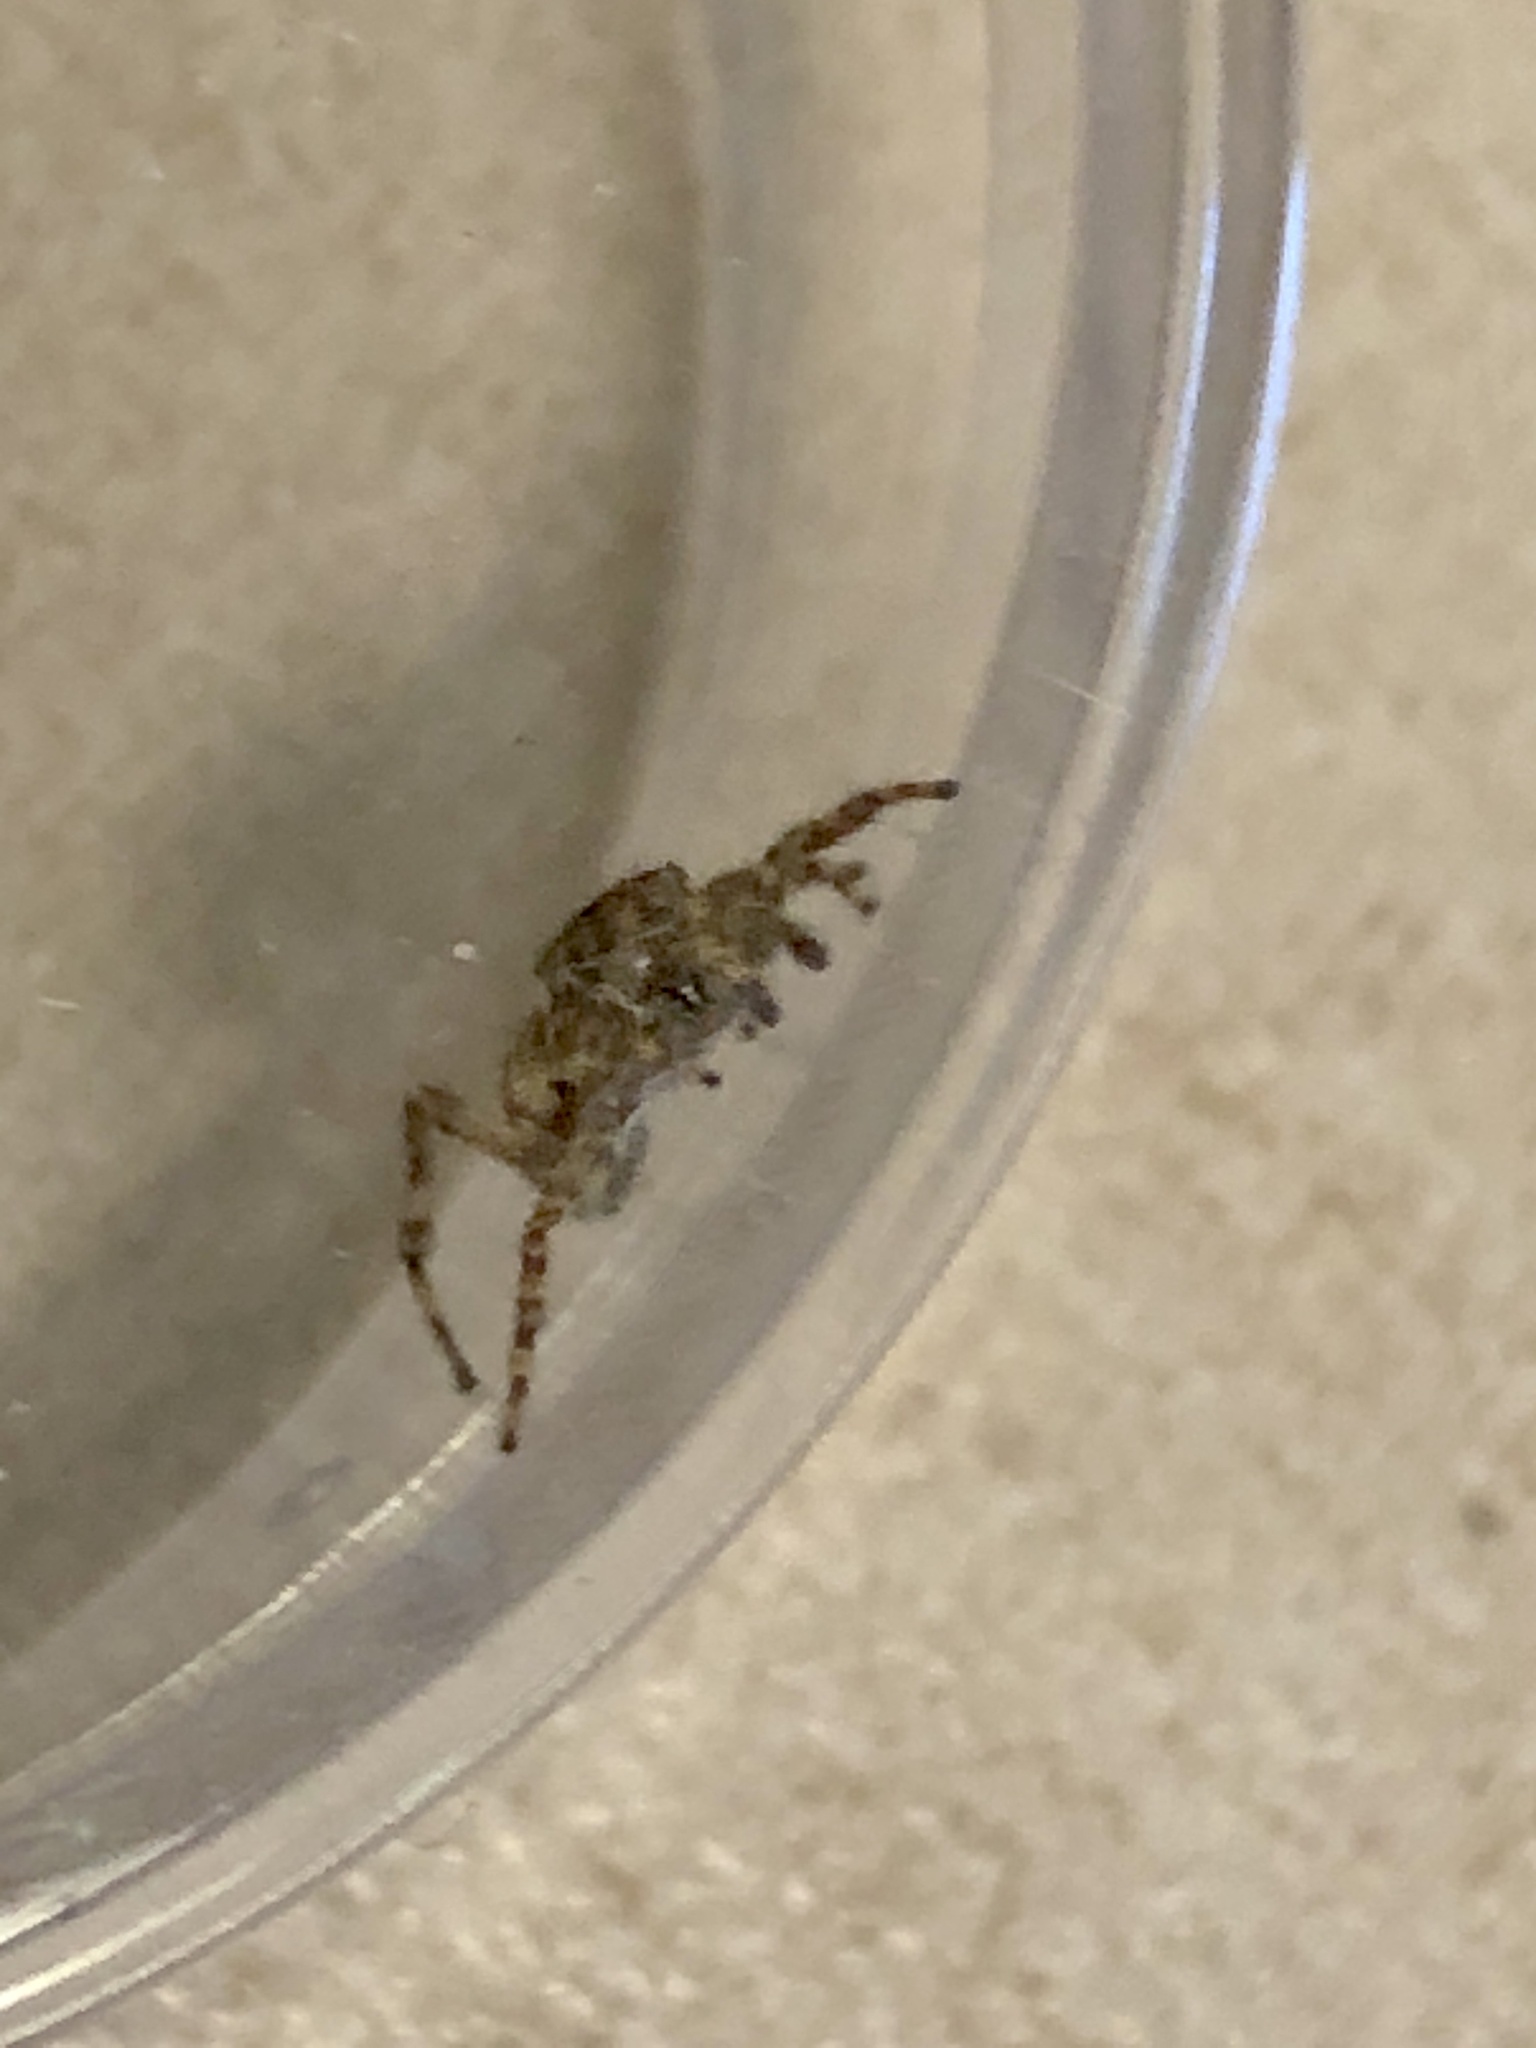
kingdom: Animalia
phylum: Arthropoda
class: Arachnida
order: Araneae
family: Salticidae
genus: Attulus
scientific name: Attulus fasciger
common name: Asiatic wall jumping spider
